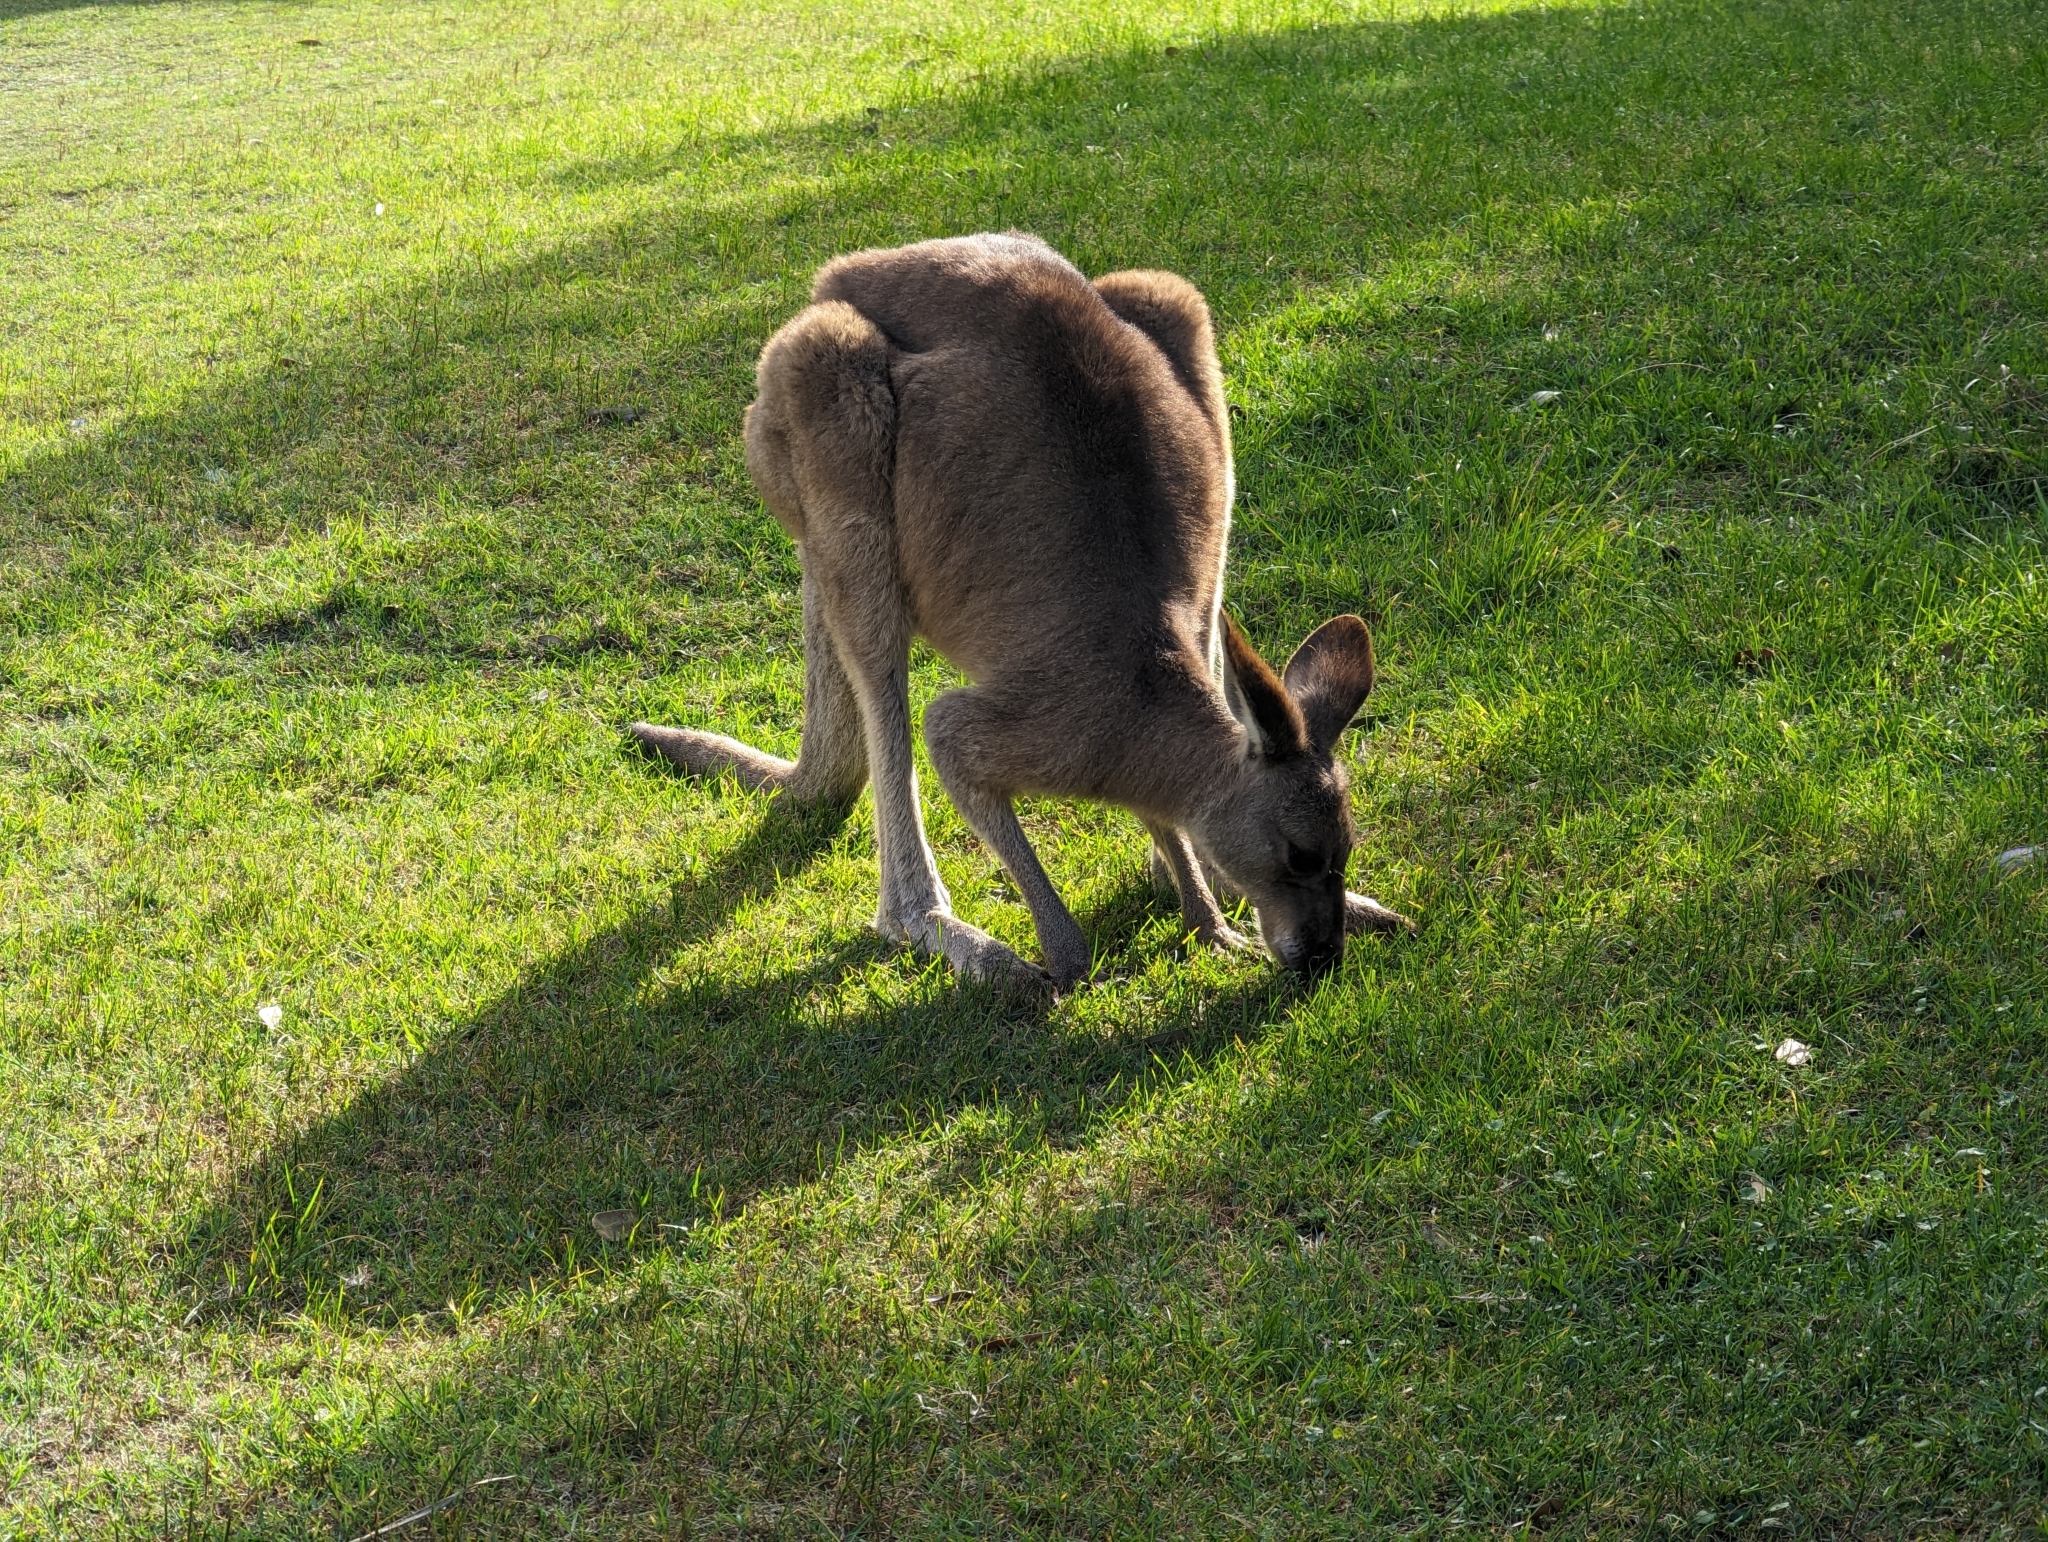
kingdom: Animalia
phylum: Chordata
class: Mammalia
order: Diprotodontia
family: Macropodidae
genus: Macropus
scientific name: Macropus giganteus
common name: Eastern grey kangaroo
